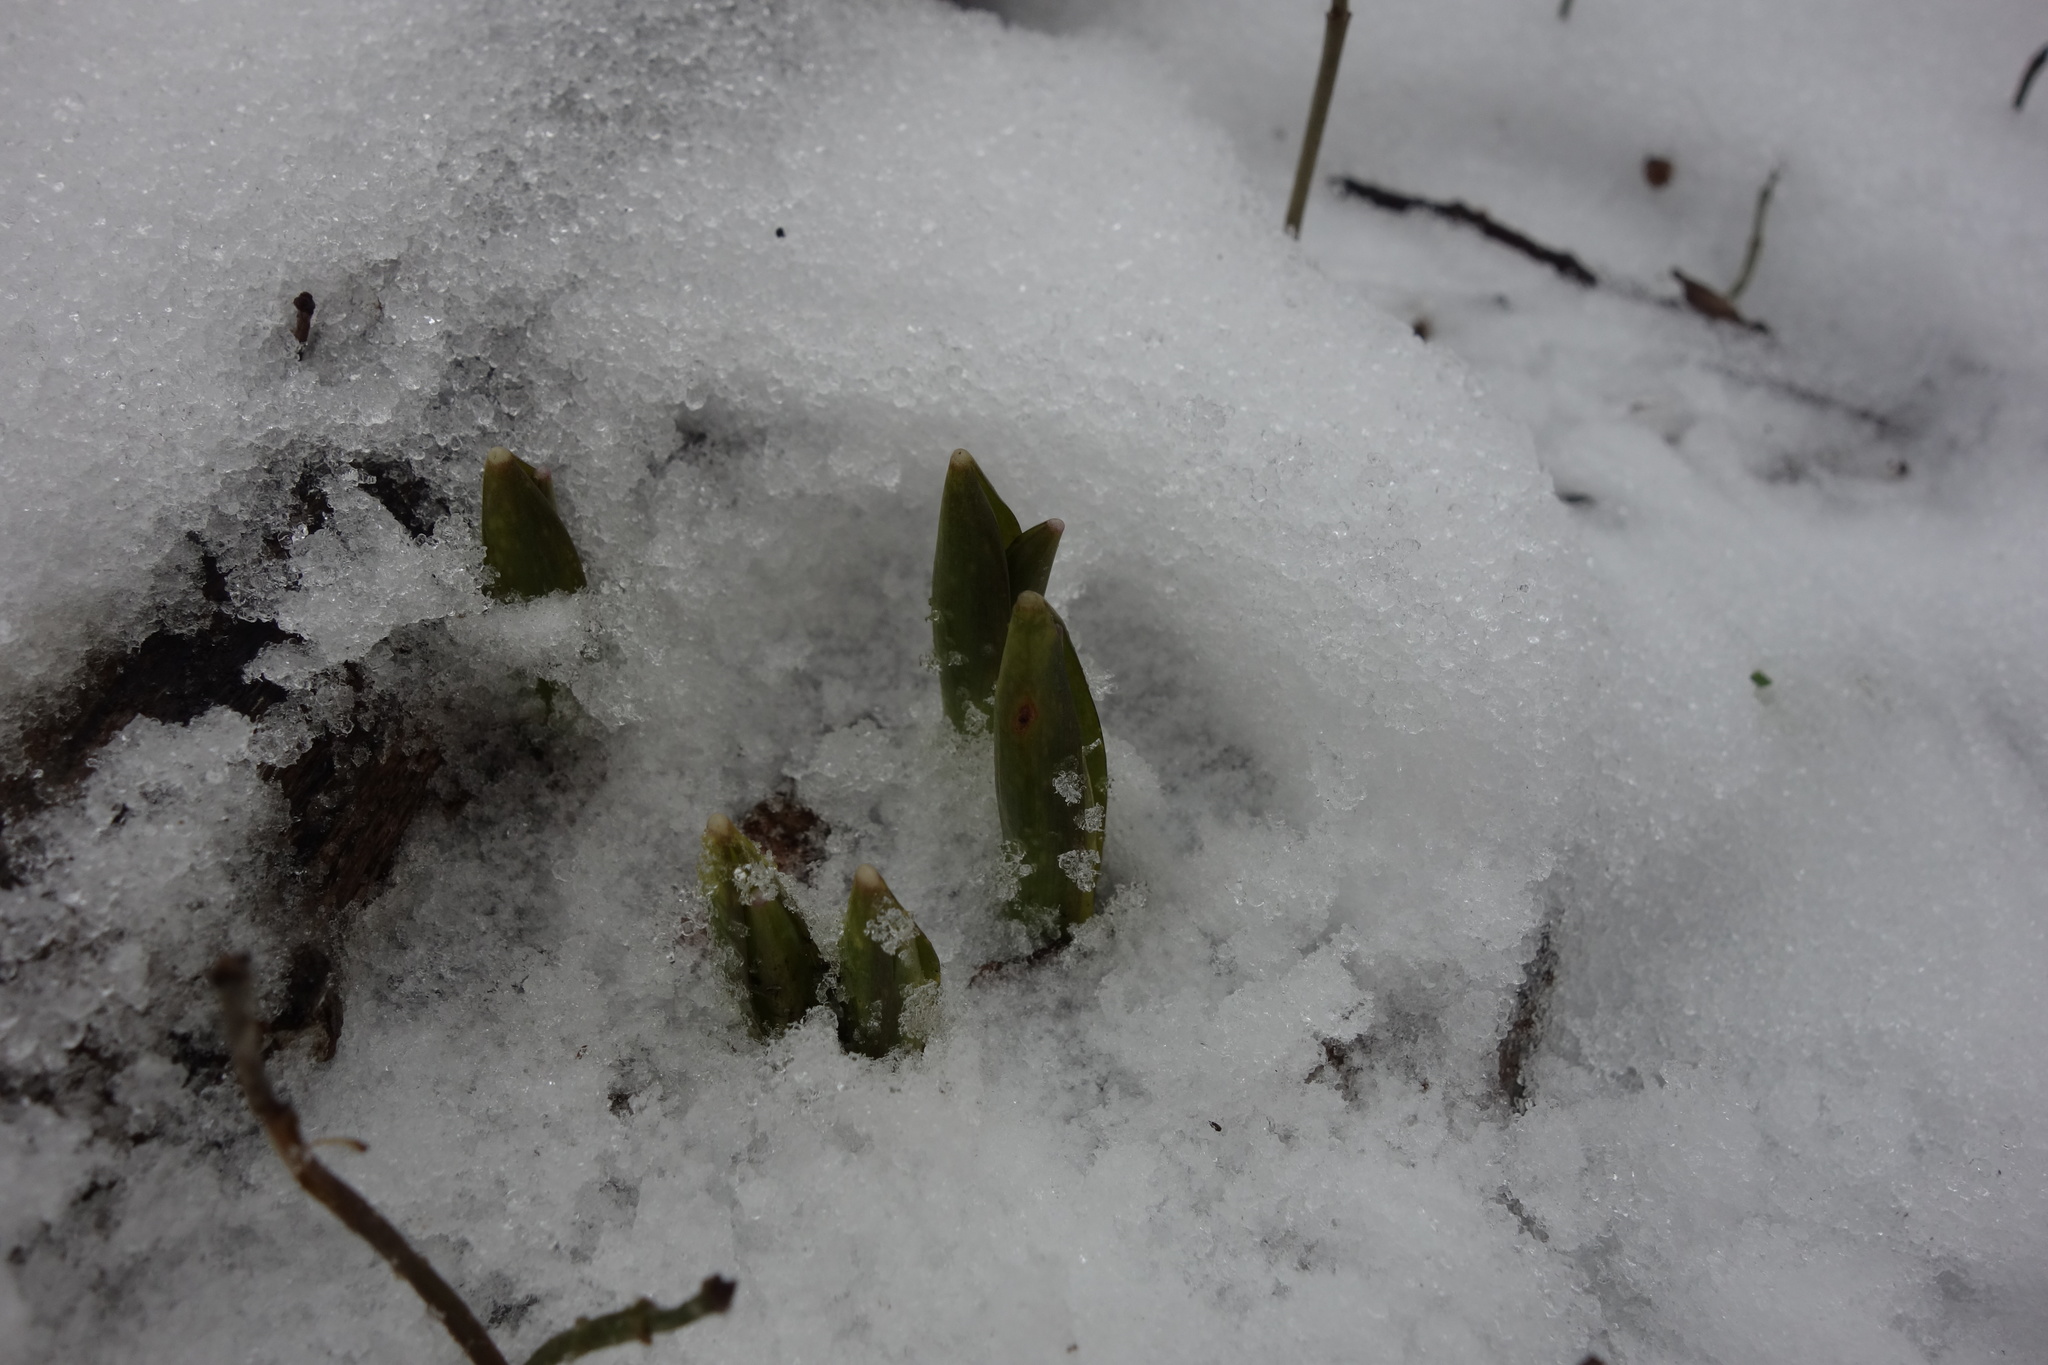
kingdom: Plantae
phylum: Tracheophyta
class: Liliopsida
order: Asparagales
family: Asparagaceae
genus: Scilla
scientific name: Scilla siberica
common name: Siberian squill
